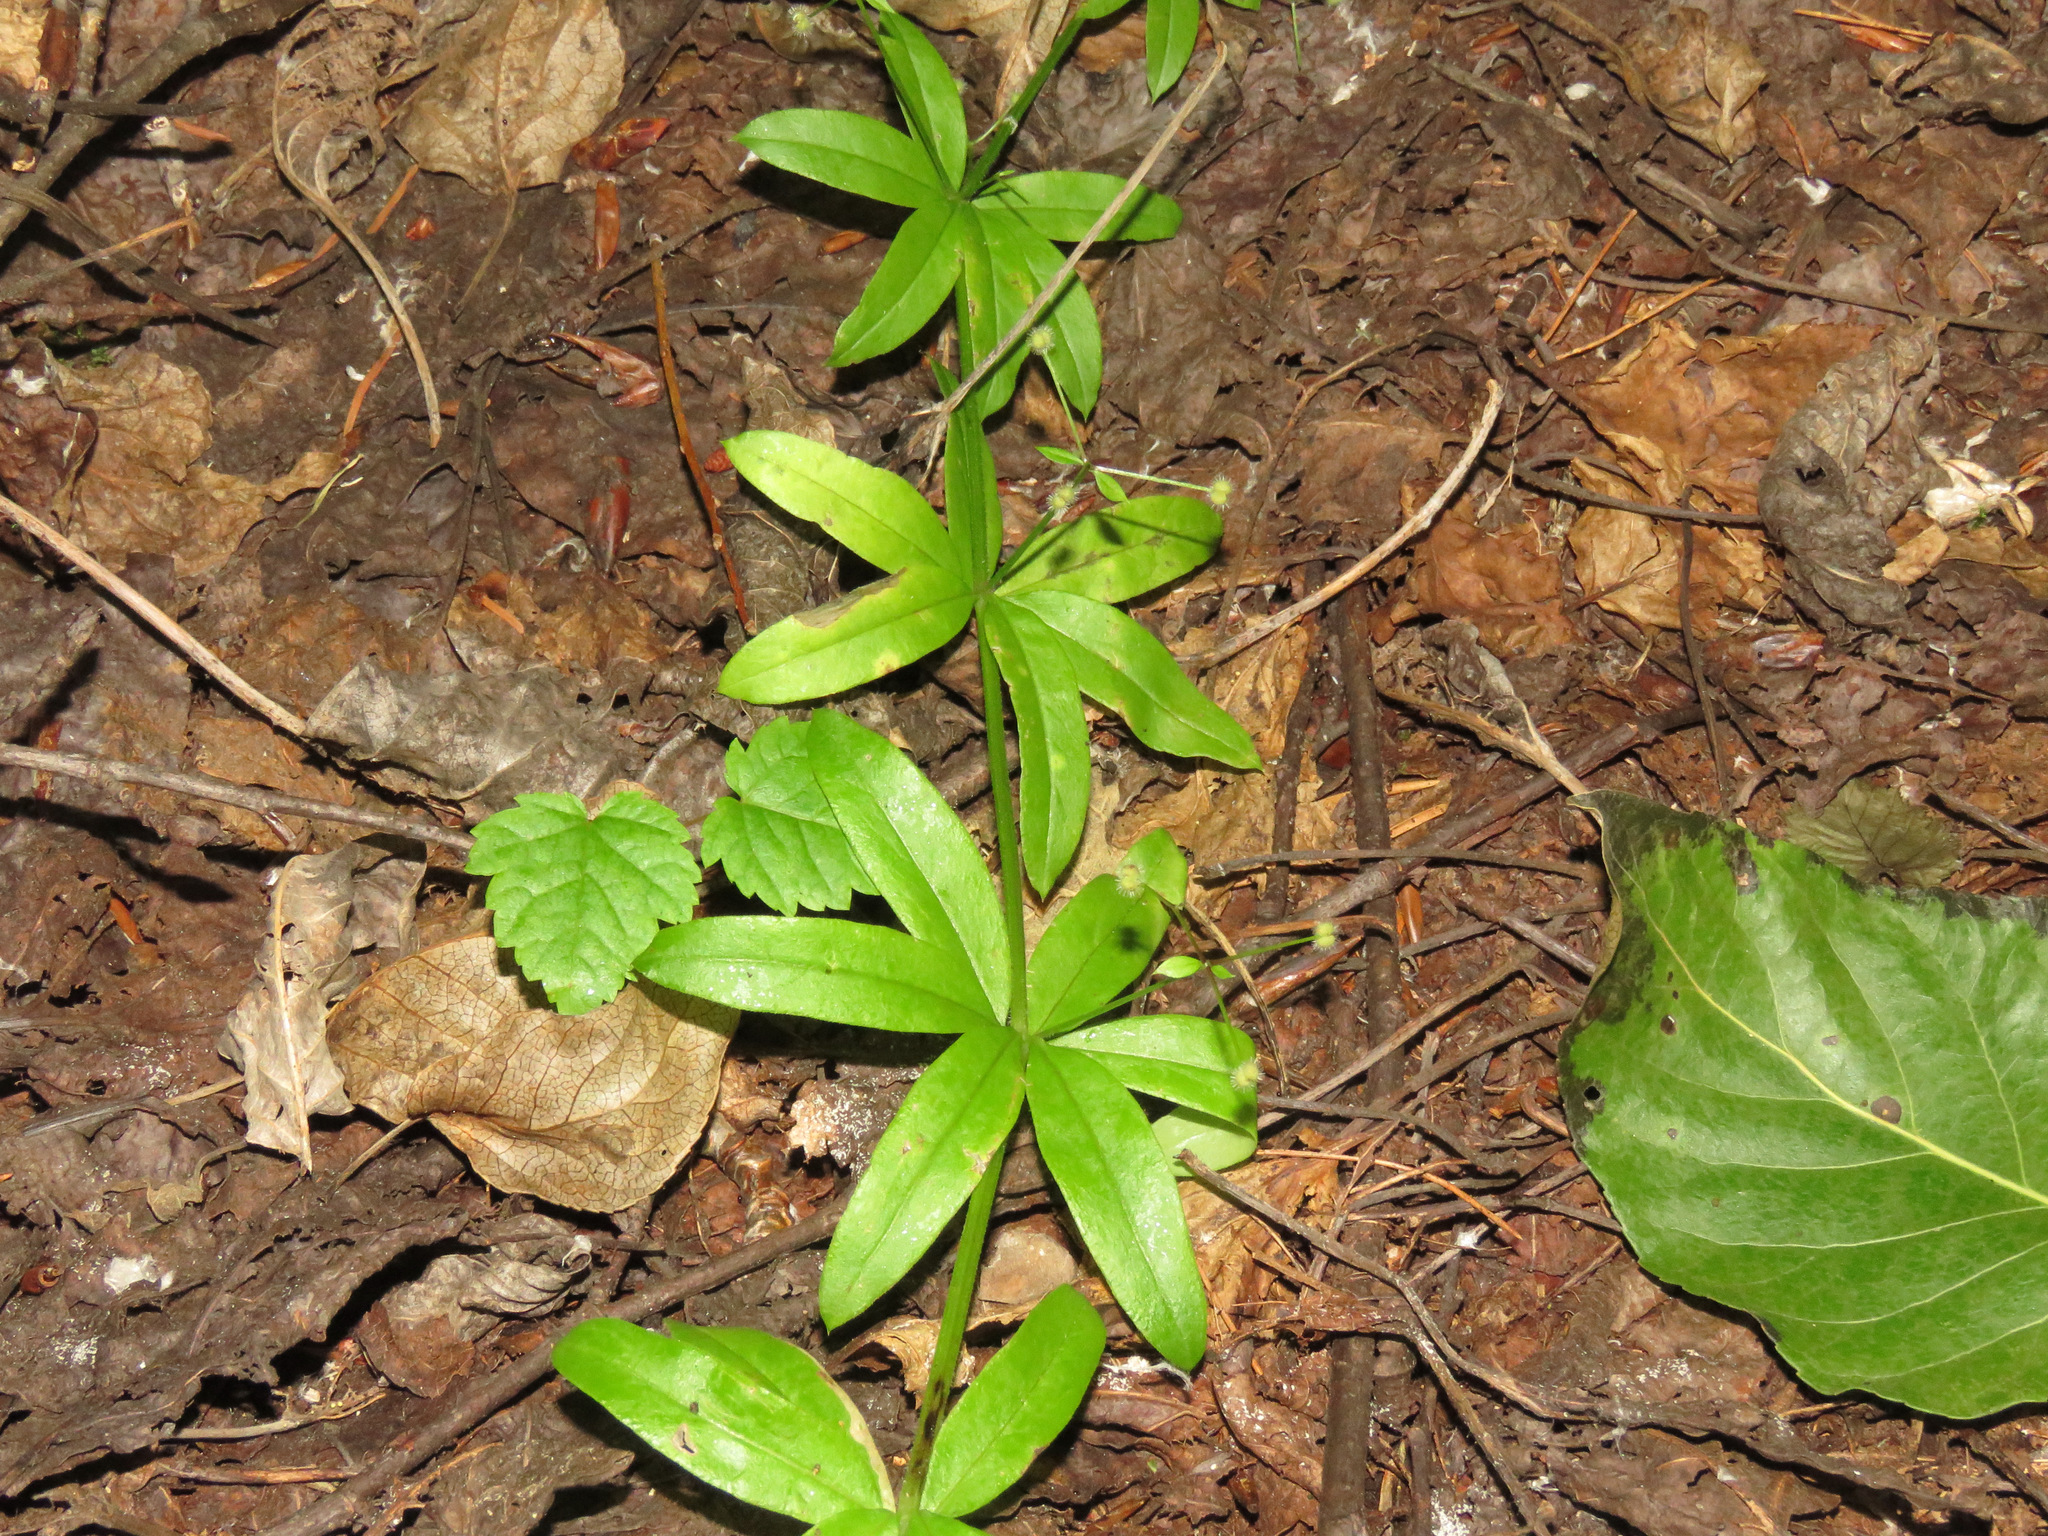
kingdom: Plantae
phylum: Tracheophyta
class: Magnoliopsida
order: Gentianales
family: Rubiaceae
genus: Galium
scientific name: Galium triflorum
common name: Fragrant bedstraw
